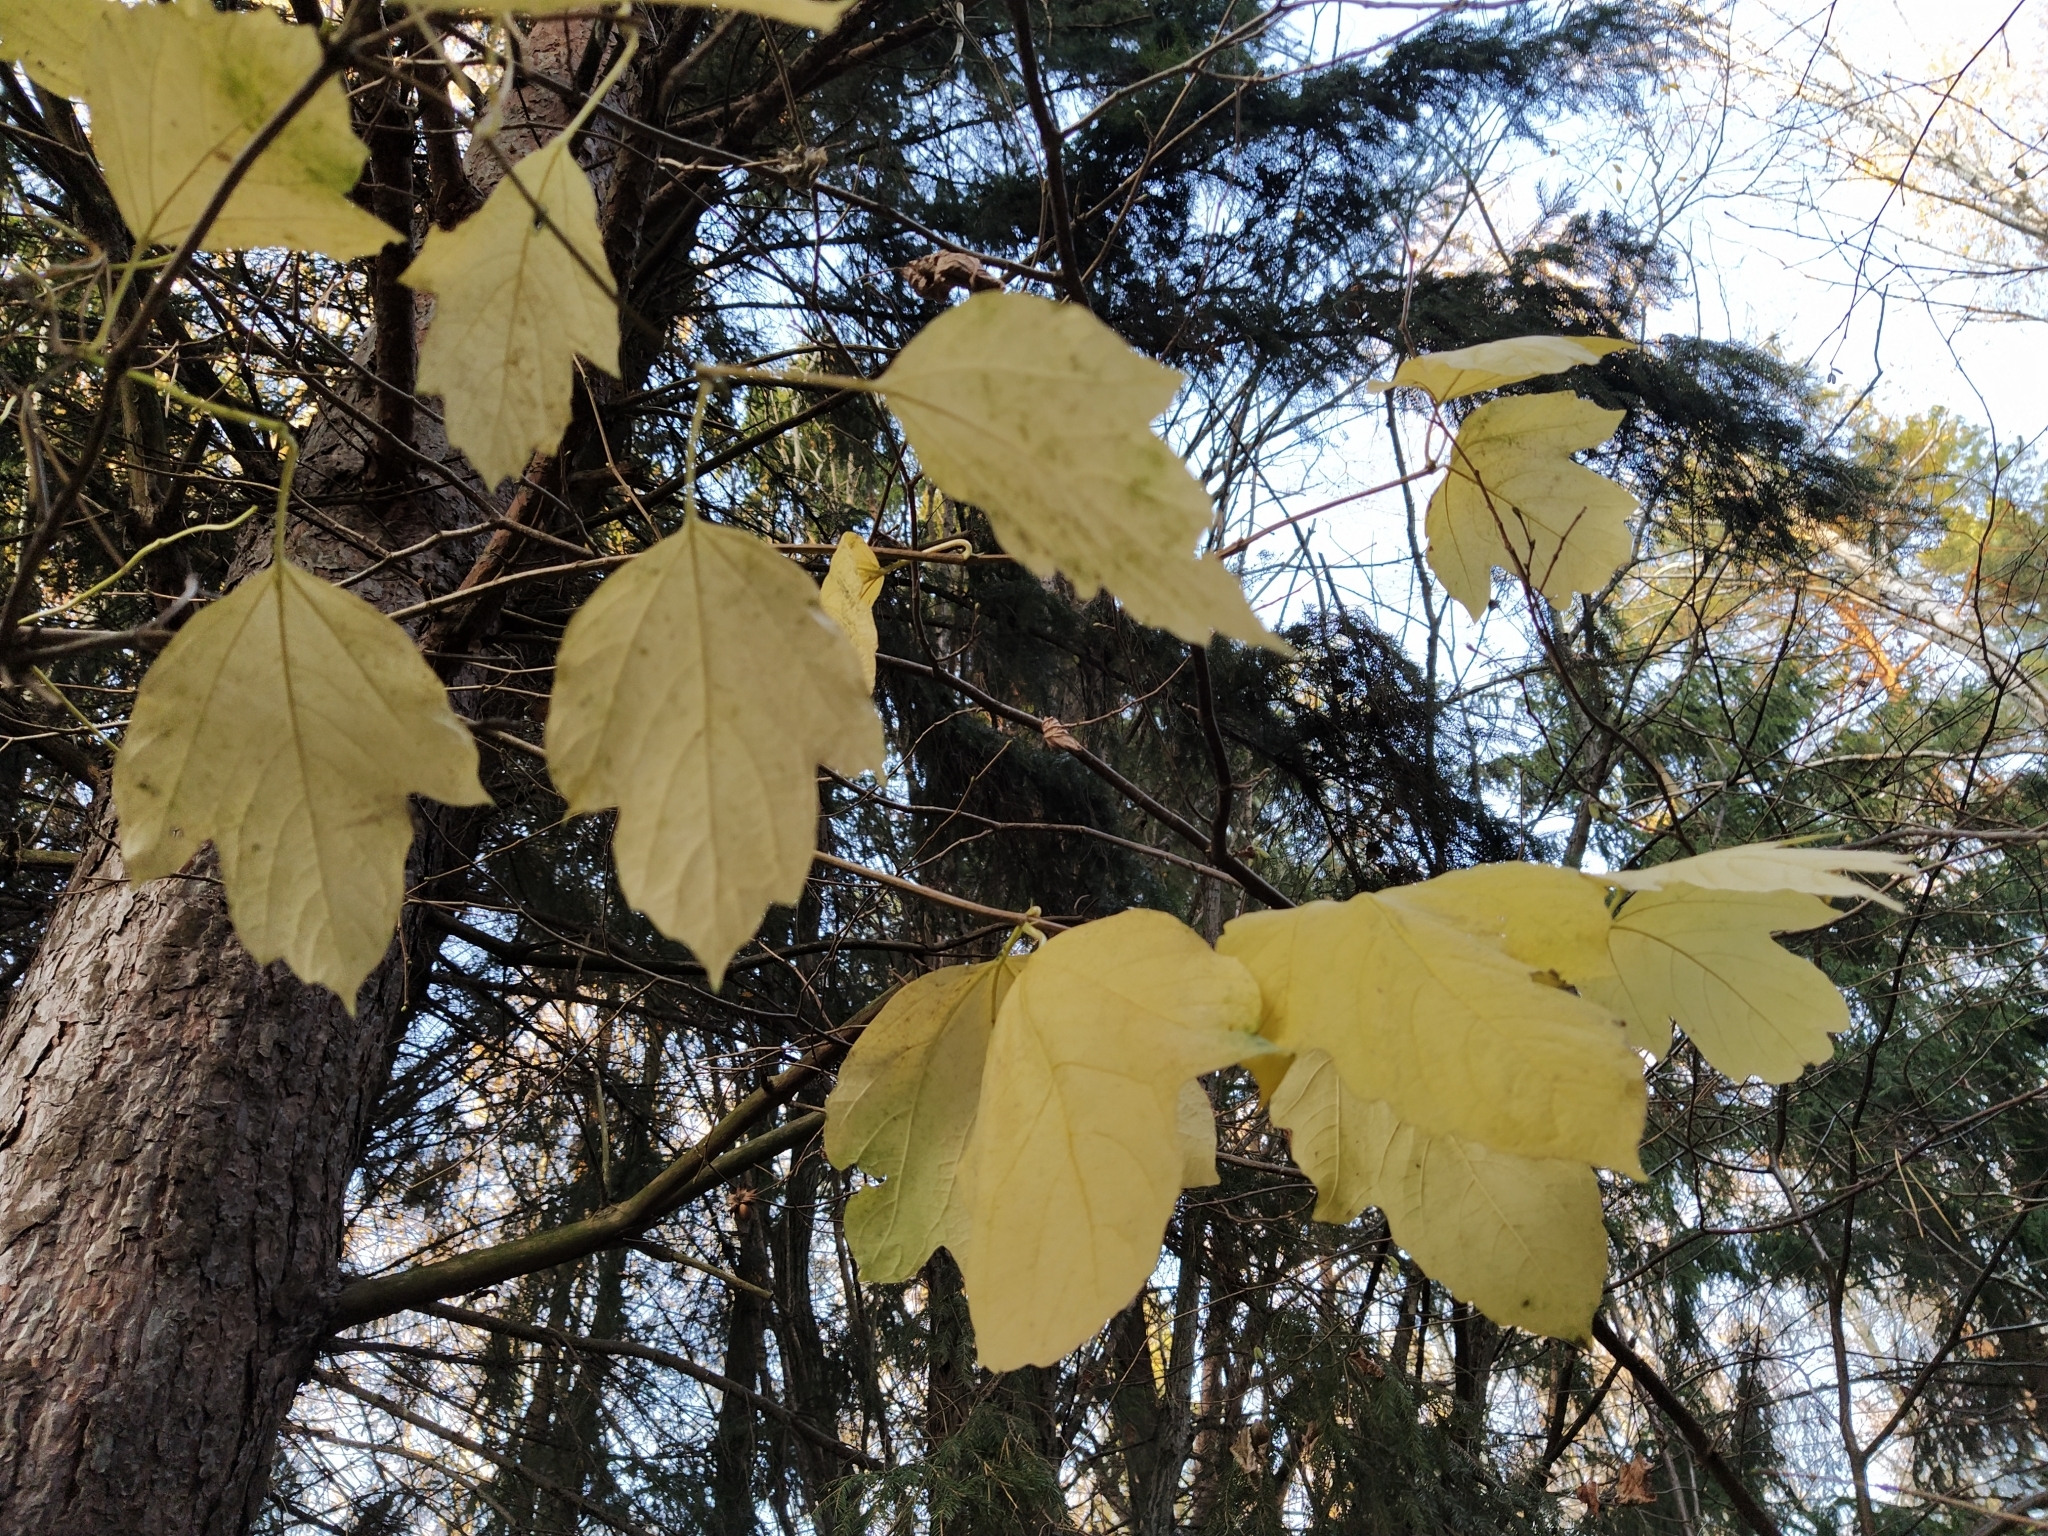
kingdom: Plantae
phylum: Tracheophyta
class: Magnoliopsida
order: Dipsacales
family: Viburnaceae
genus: Viburnum
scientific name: Viburnum opulus
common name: Guelder-rose
